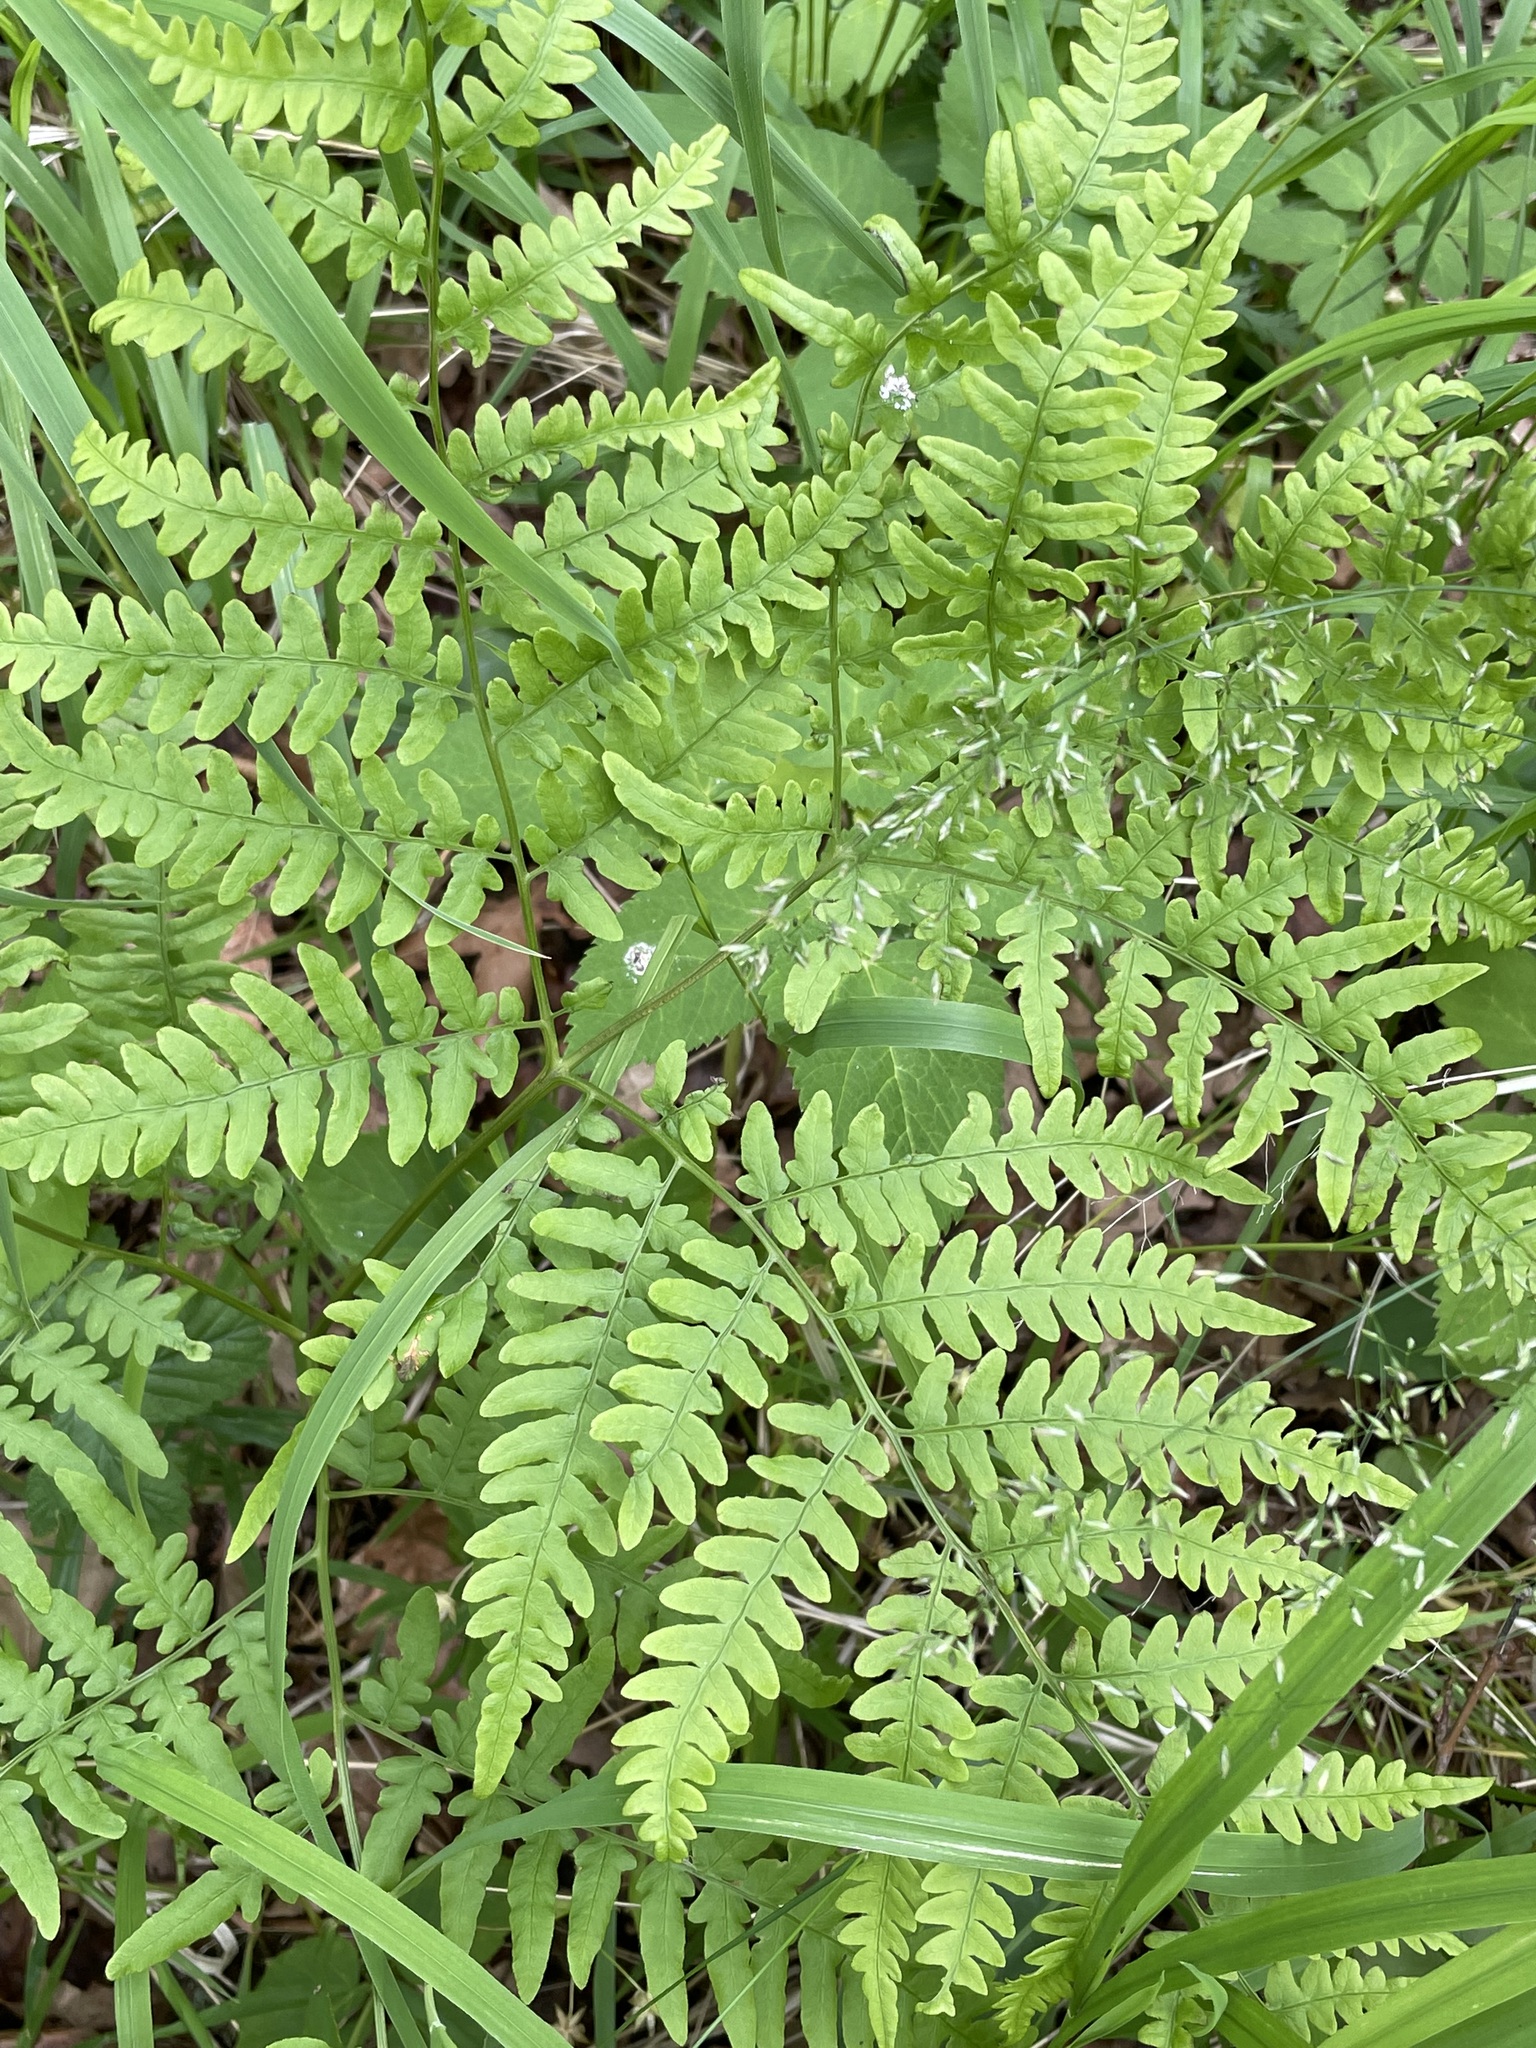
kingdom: Plantae
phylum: Tracheophyta
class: Polypodiopsida
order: Polypodiales
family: Dennstaedtiaceae
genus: Pteridium
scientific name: Pteridium aquilinum
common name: Bracken
